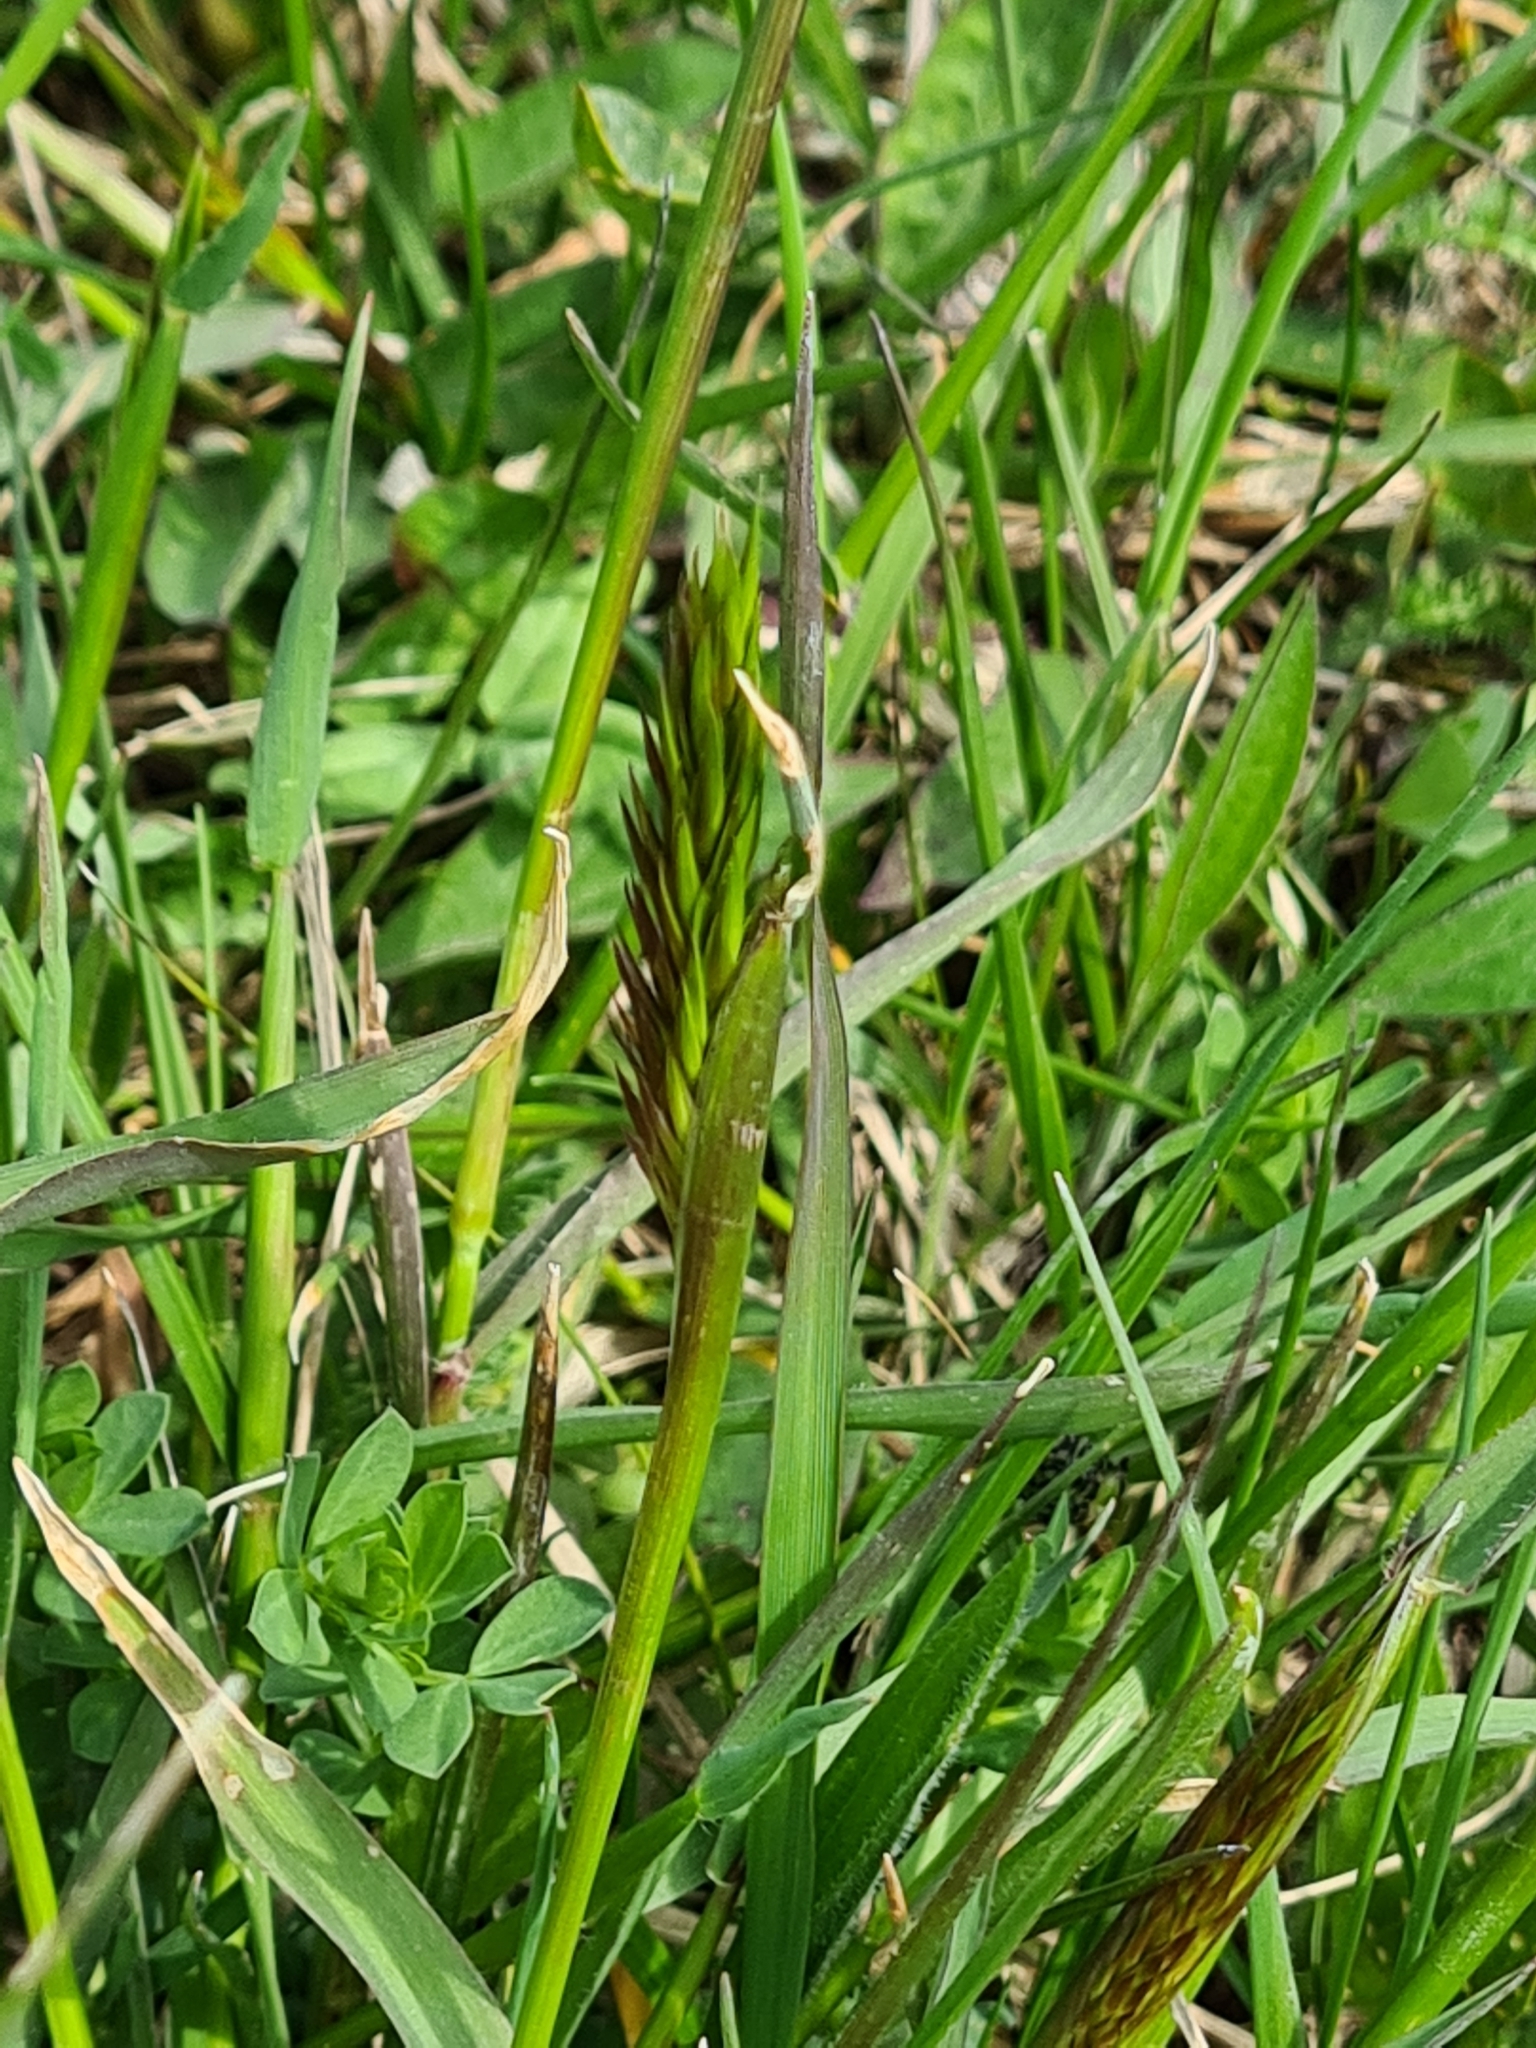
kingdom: Plantae
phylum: Tracheophyta
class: Liliopsida
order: Poales
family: Poaceae
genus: Anthoxanthum
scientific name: Anthoxanthum odoratum
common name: Sweet vernalgrass
